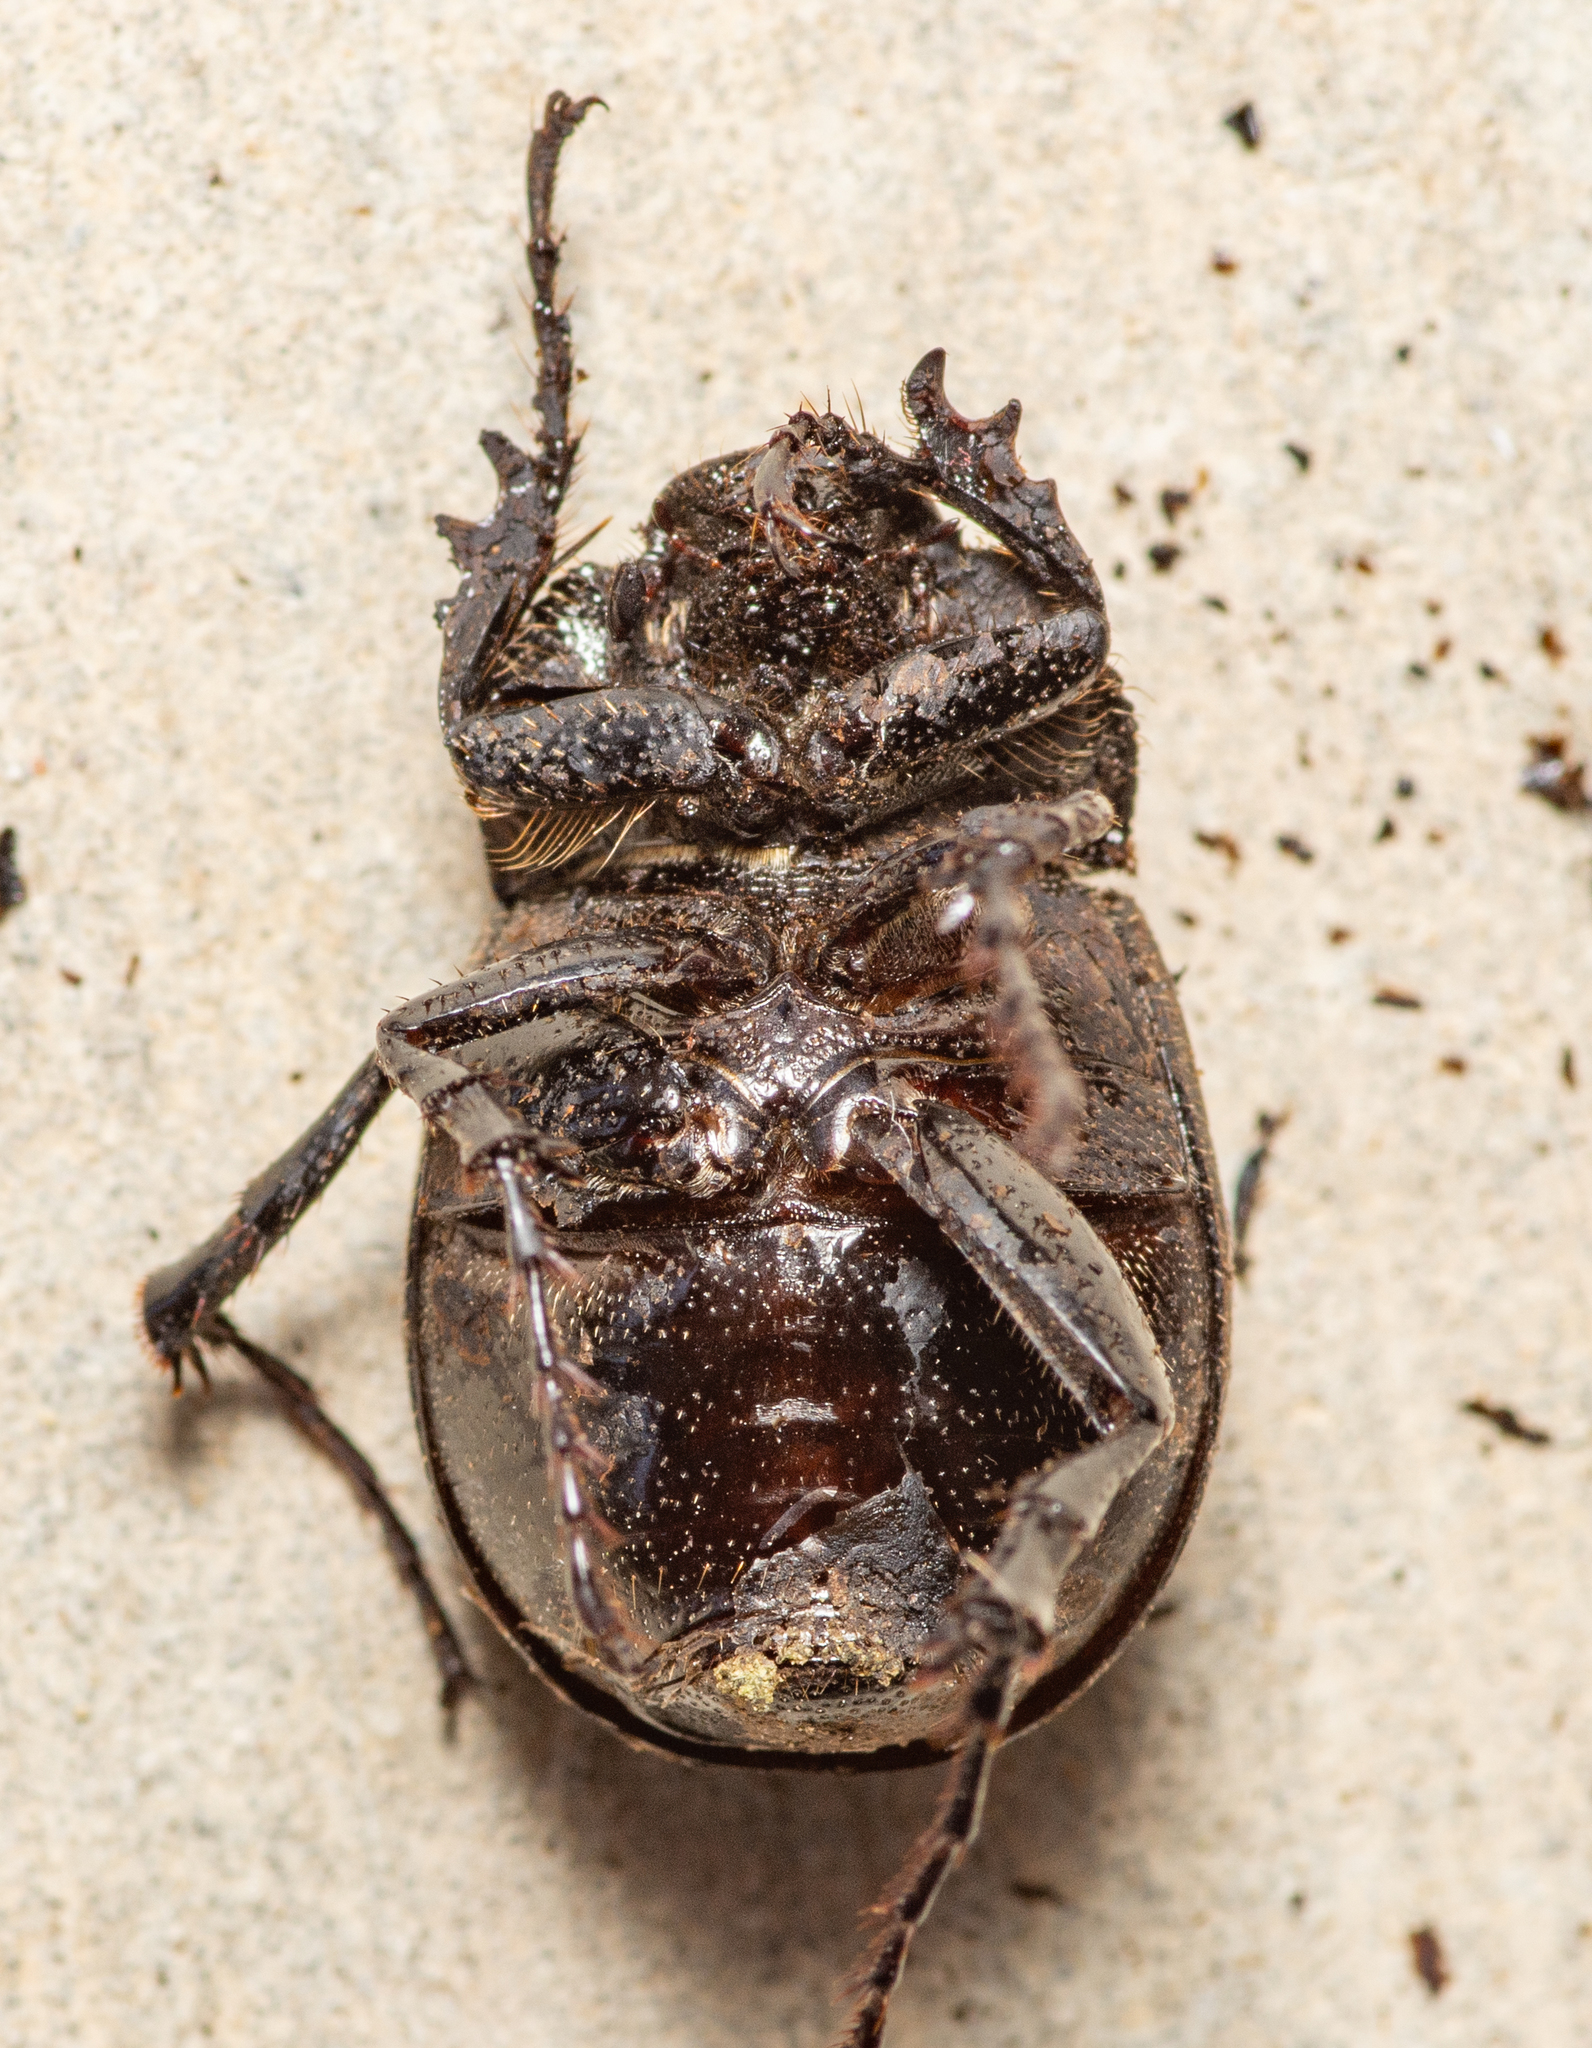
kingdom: Animalia
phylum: Arthropoda
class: Insecta
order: Coleoptera
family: Scarabaeidae
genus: Phyllophaga
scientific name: Phyllophaga cribrosa
